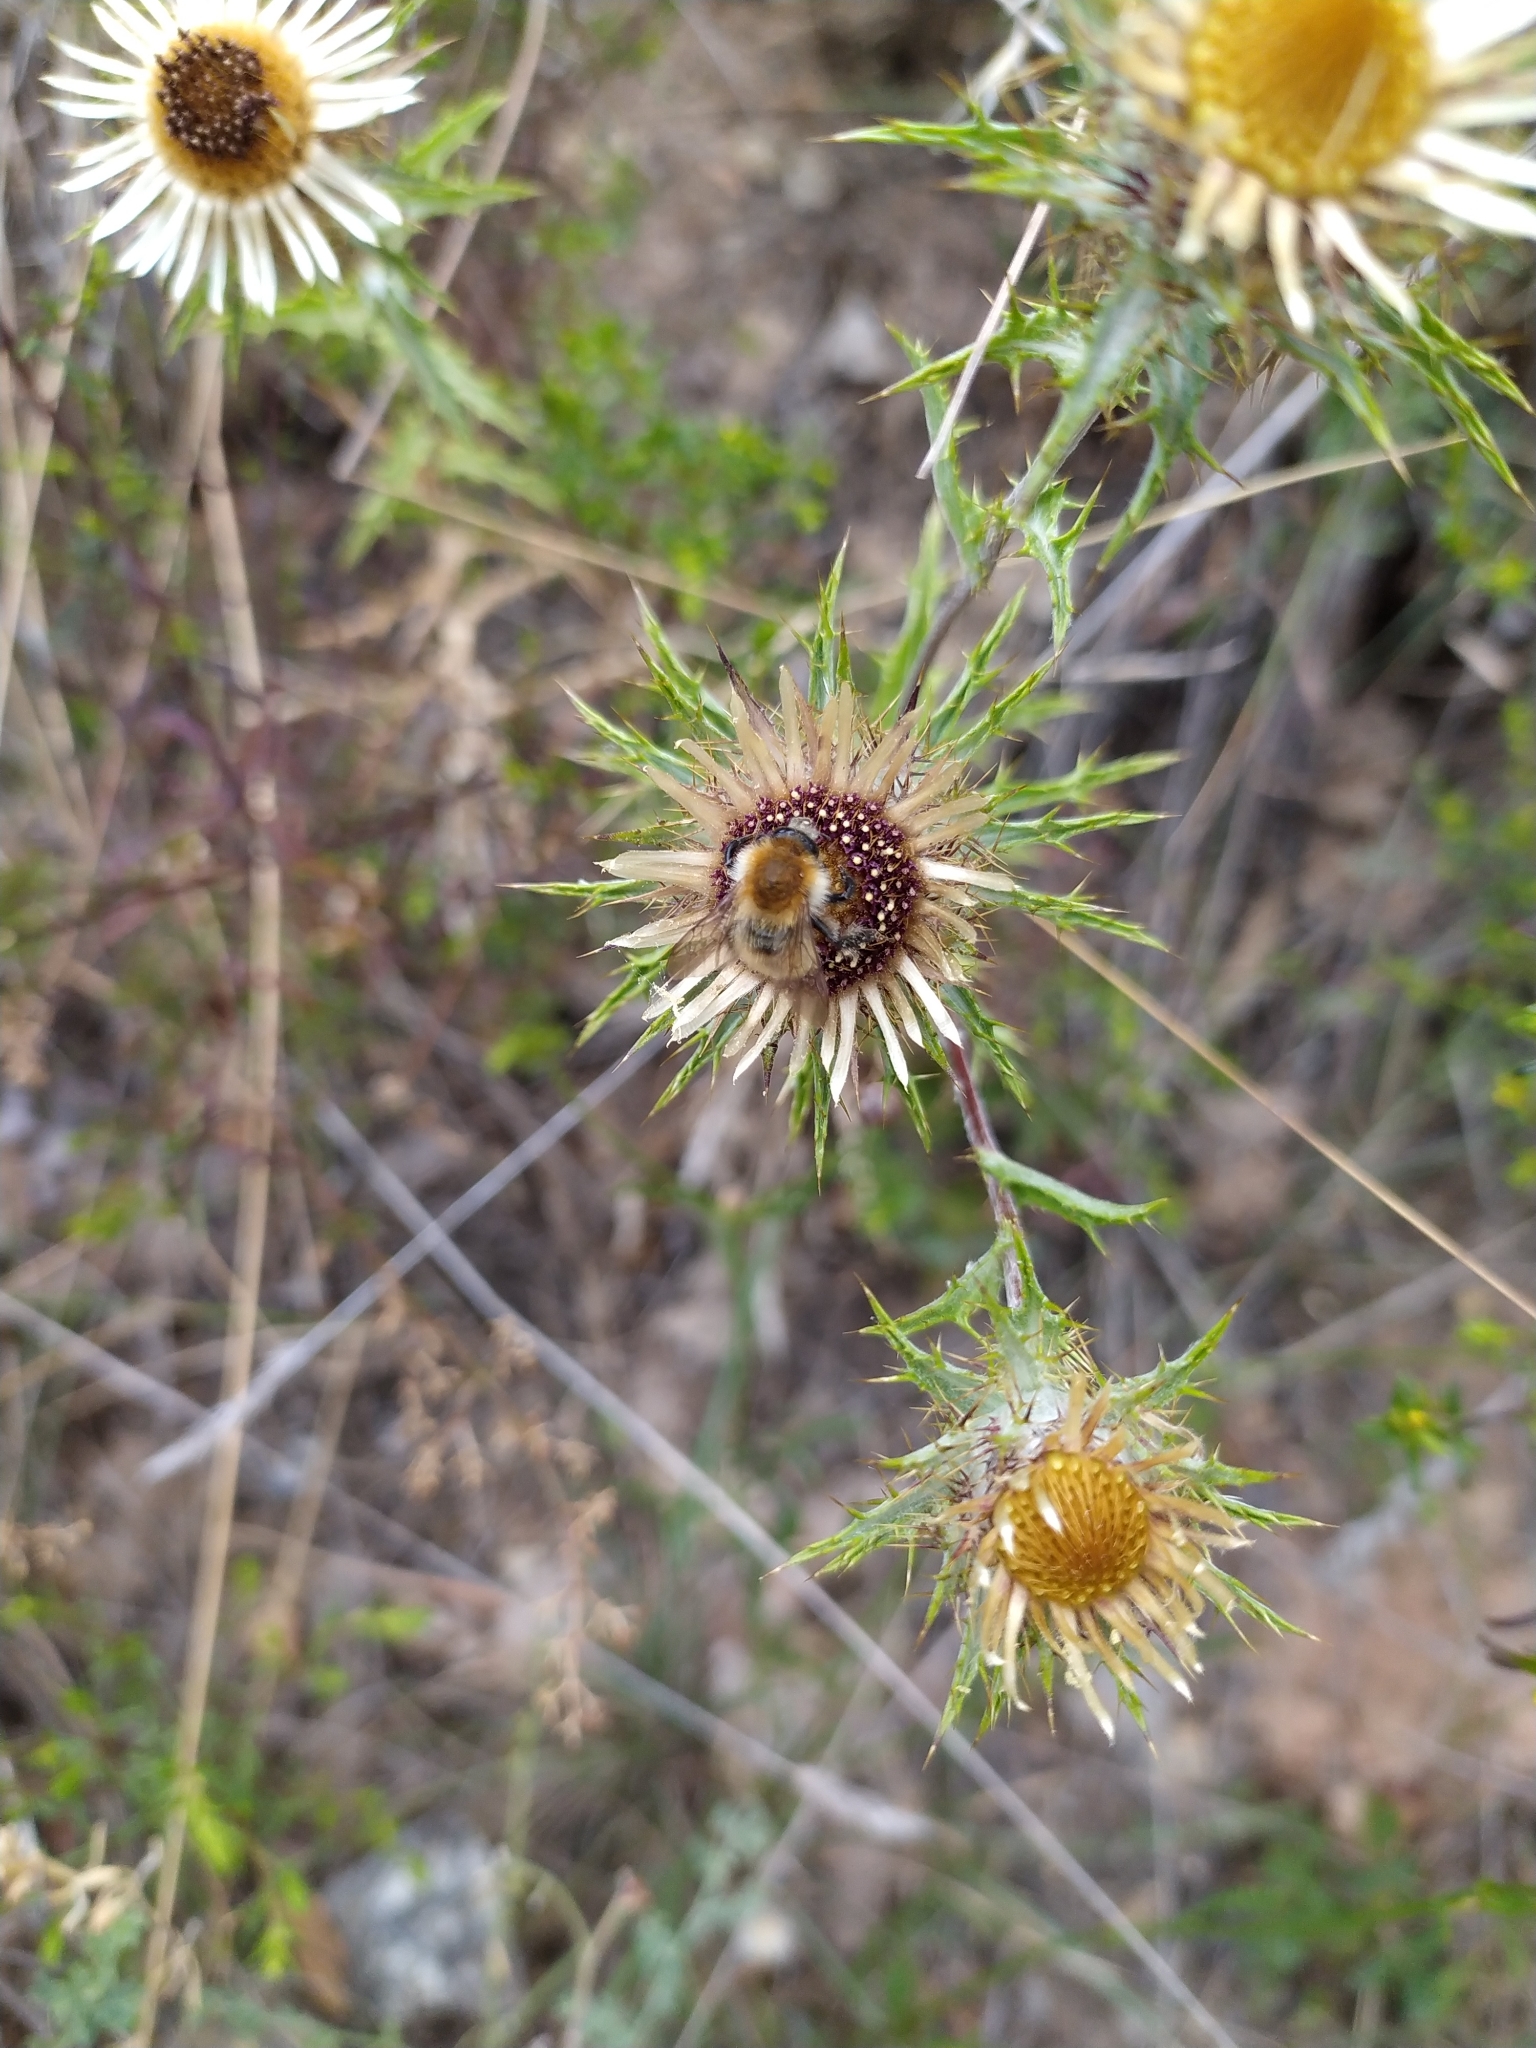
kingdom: Plantae
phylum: Tracheophyta
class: Magnoliopsida
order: Asterales
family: Asteraceae
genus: Carlina
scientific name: Carlina vulgaris
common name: Carline thistle
